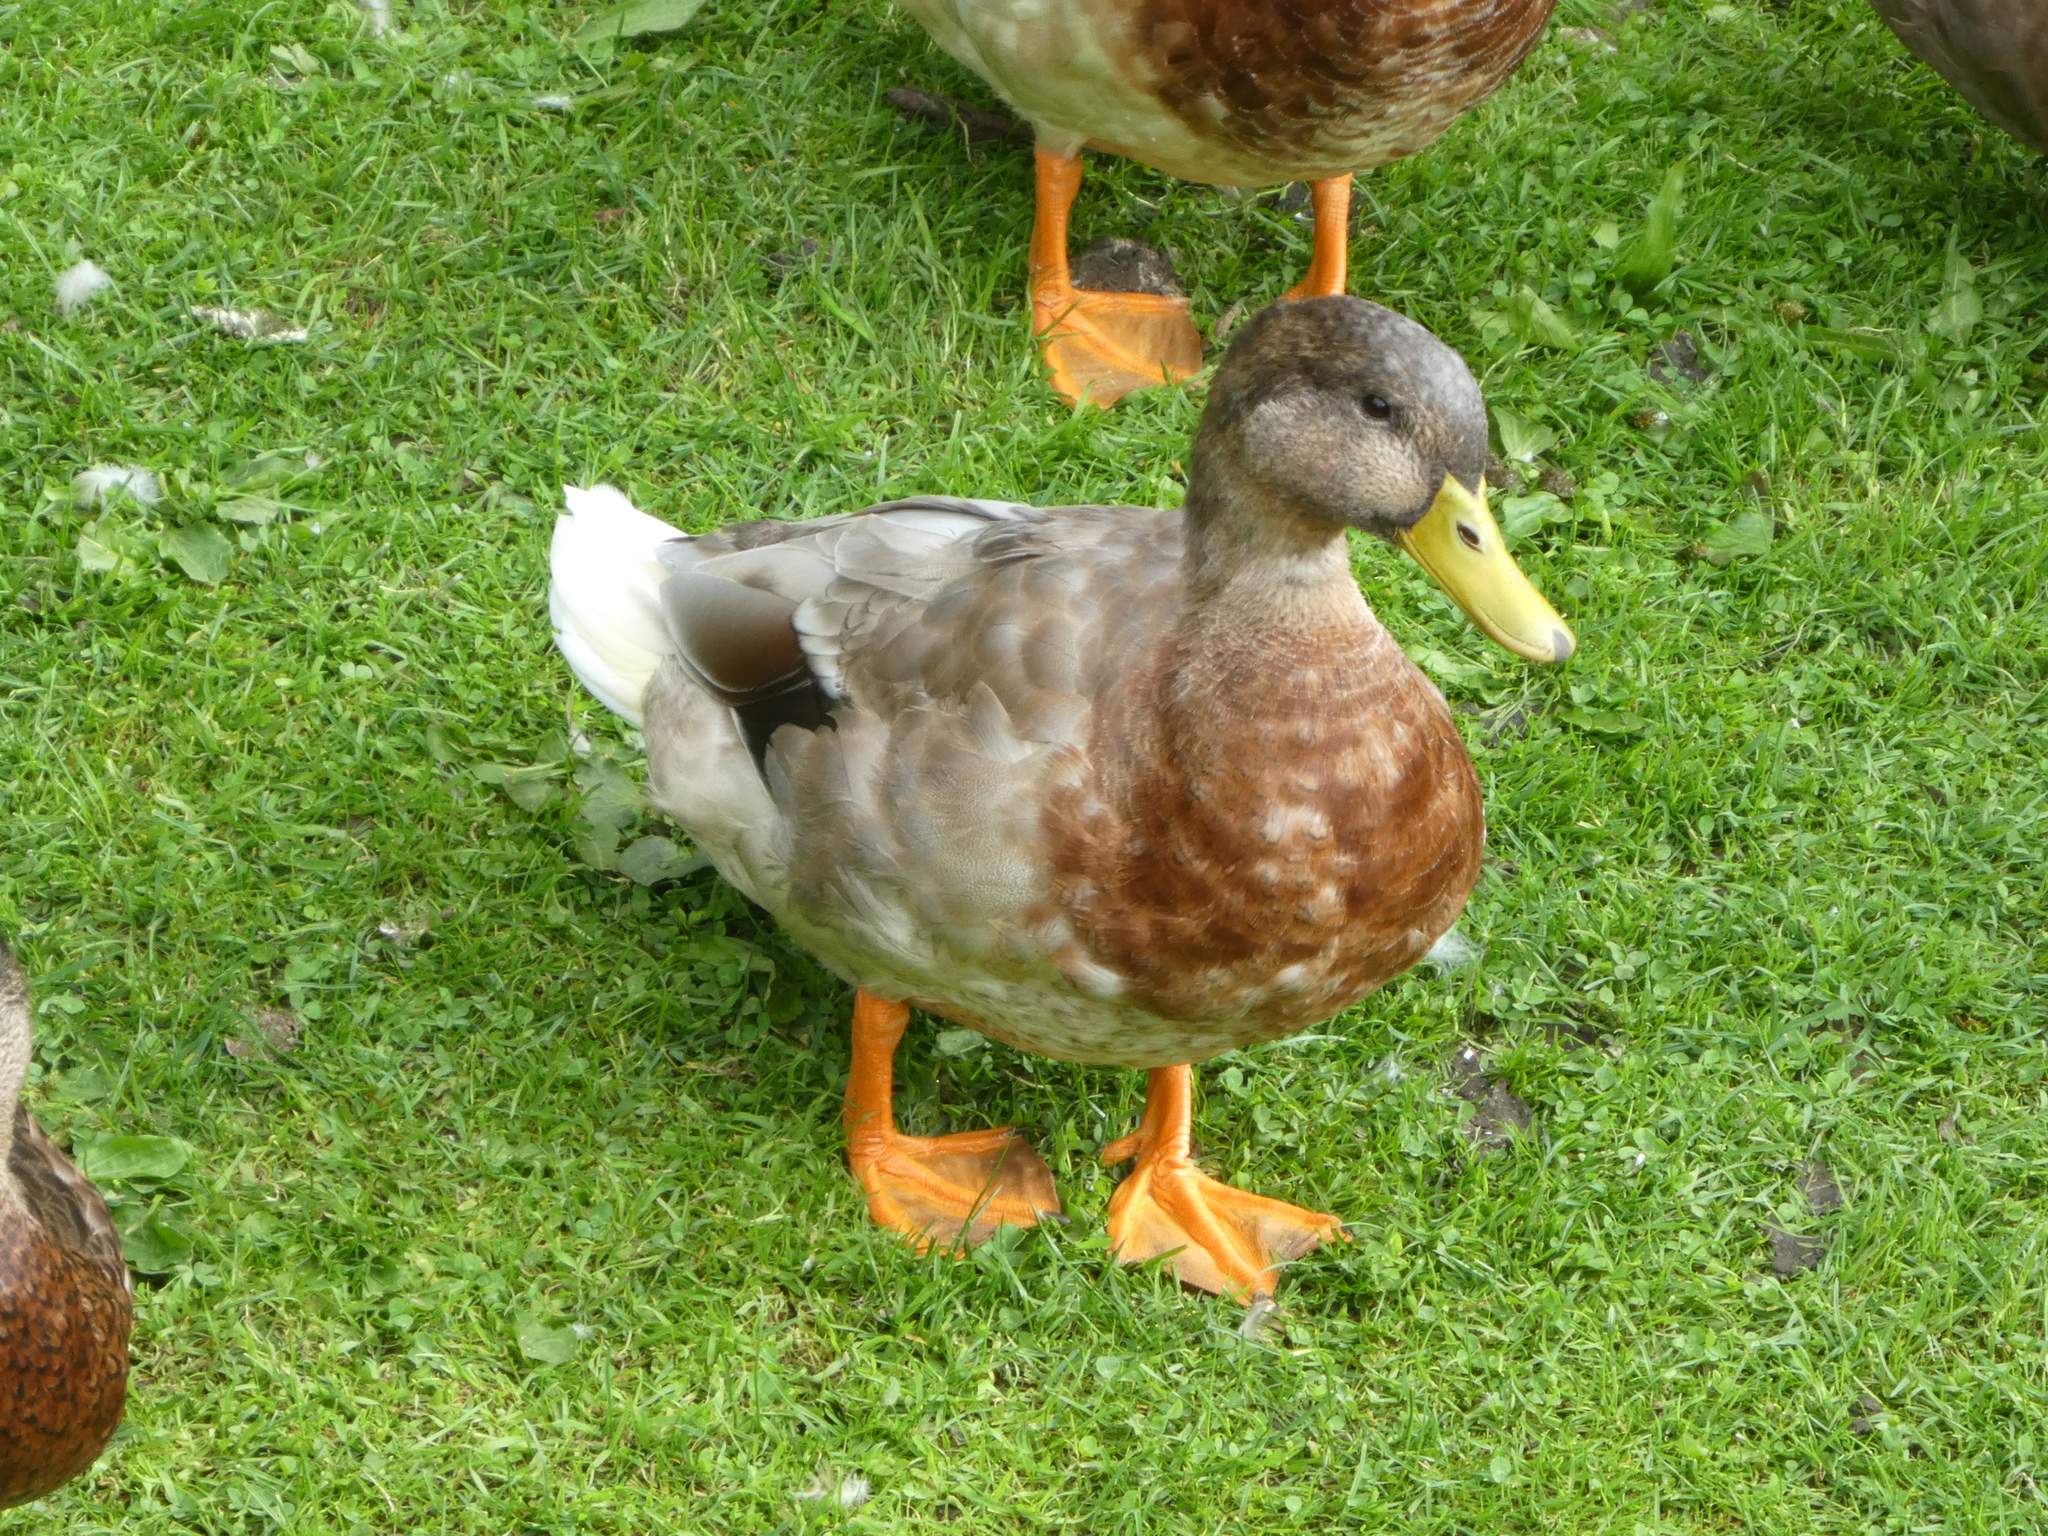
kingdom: Animalia
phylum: Chordata
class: Aves
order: Anseriformes
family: Anatidae
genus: Anas
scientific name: Anas platyrhynchos
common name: Mallard
